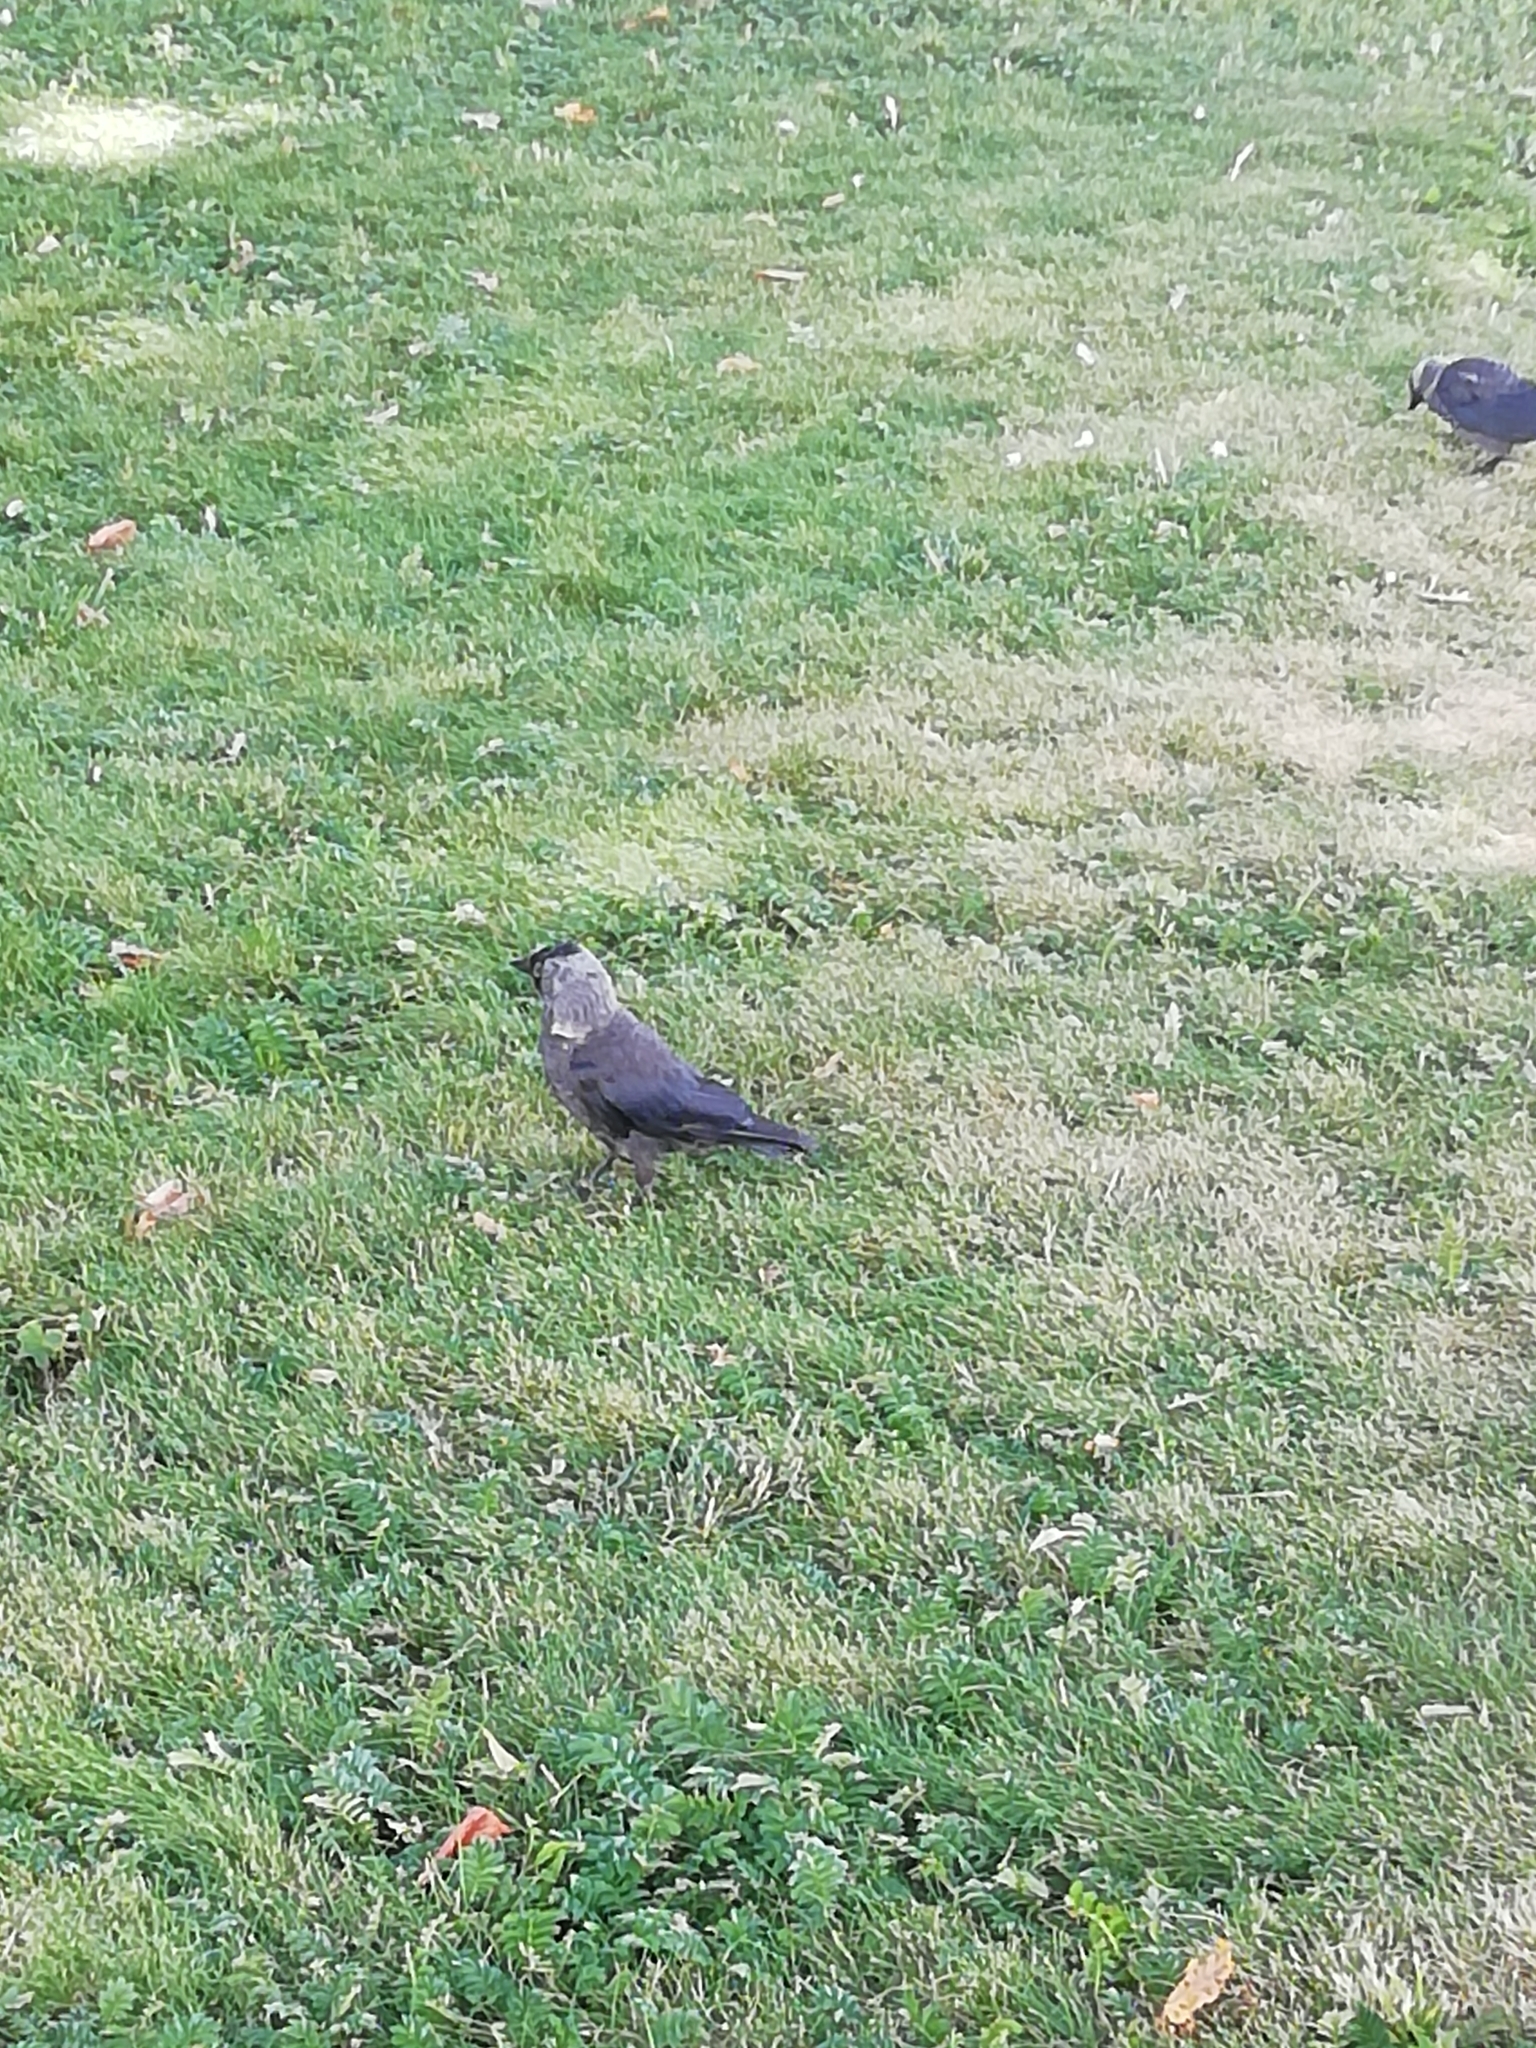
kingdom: Animalia
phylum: Chordata
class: Aves
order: Passeriformes
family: Corvidae
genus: Coloeus
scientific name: Coloeus monedula
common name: Western jackdaw
